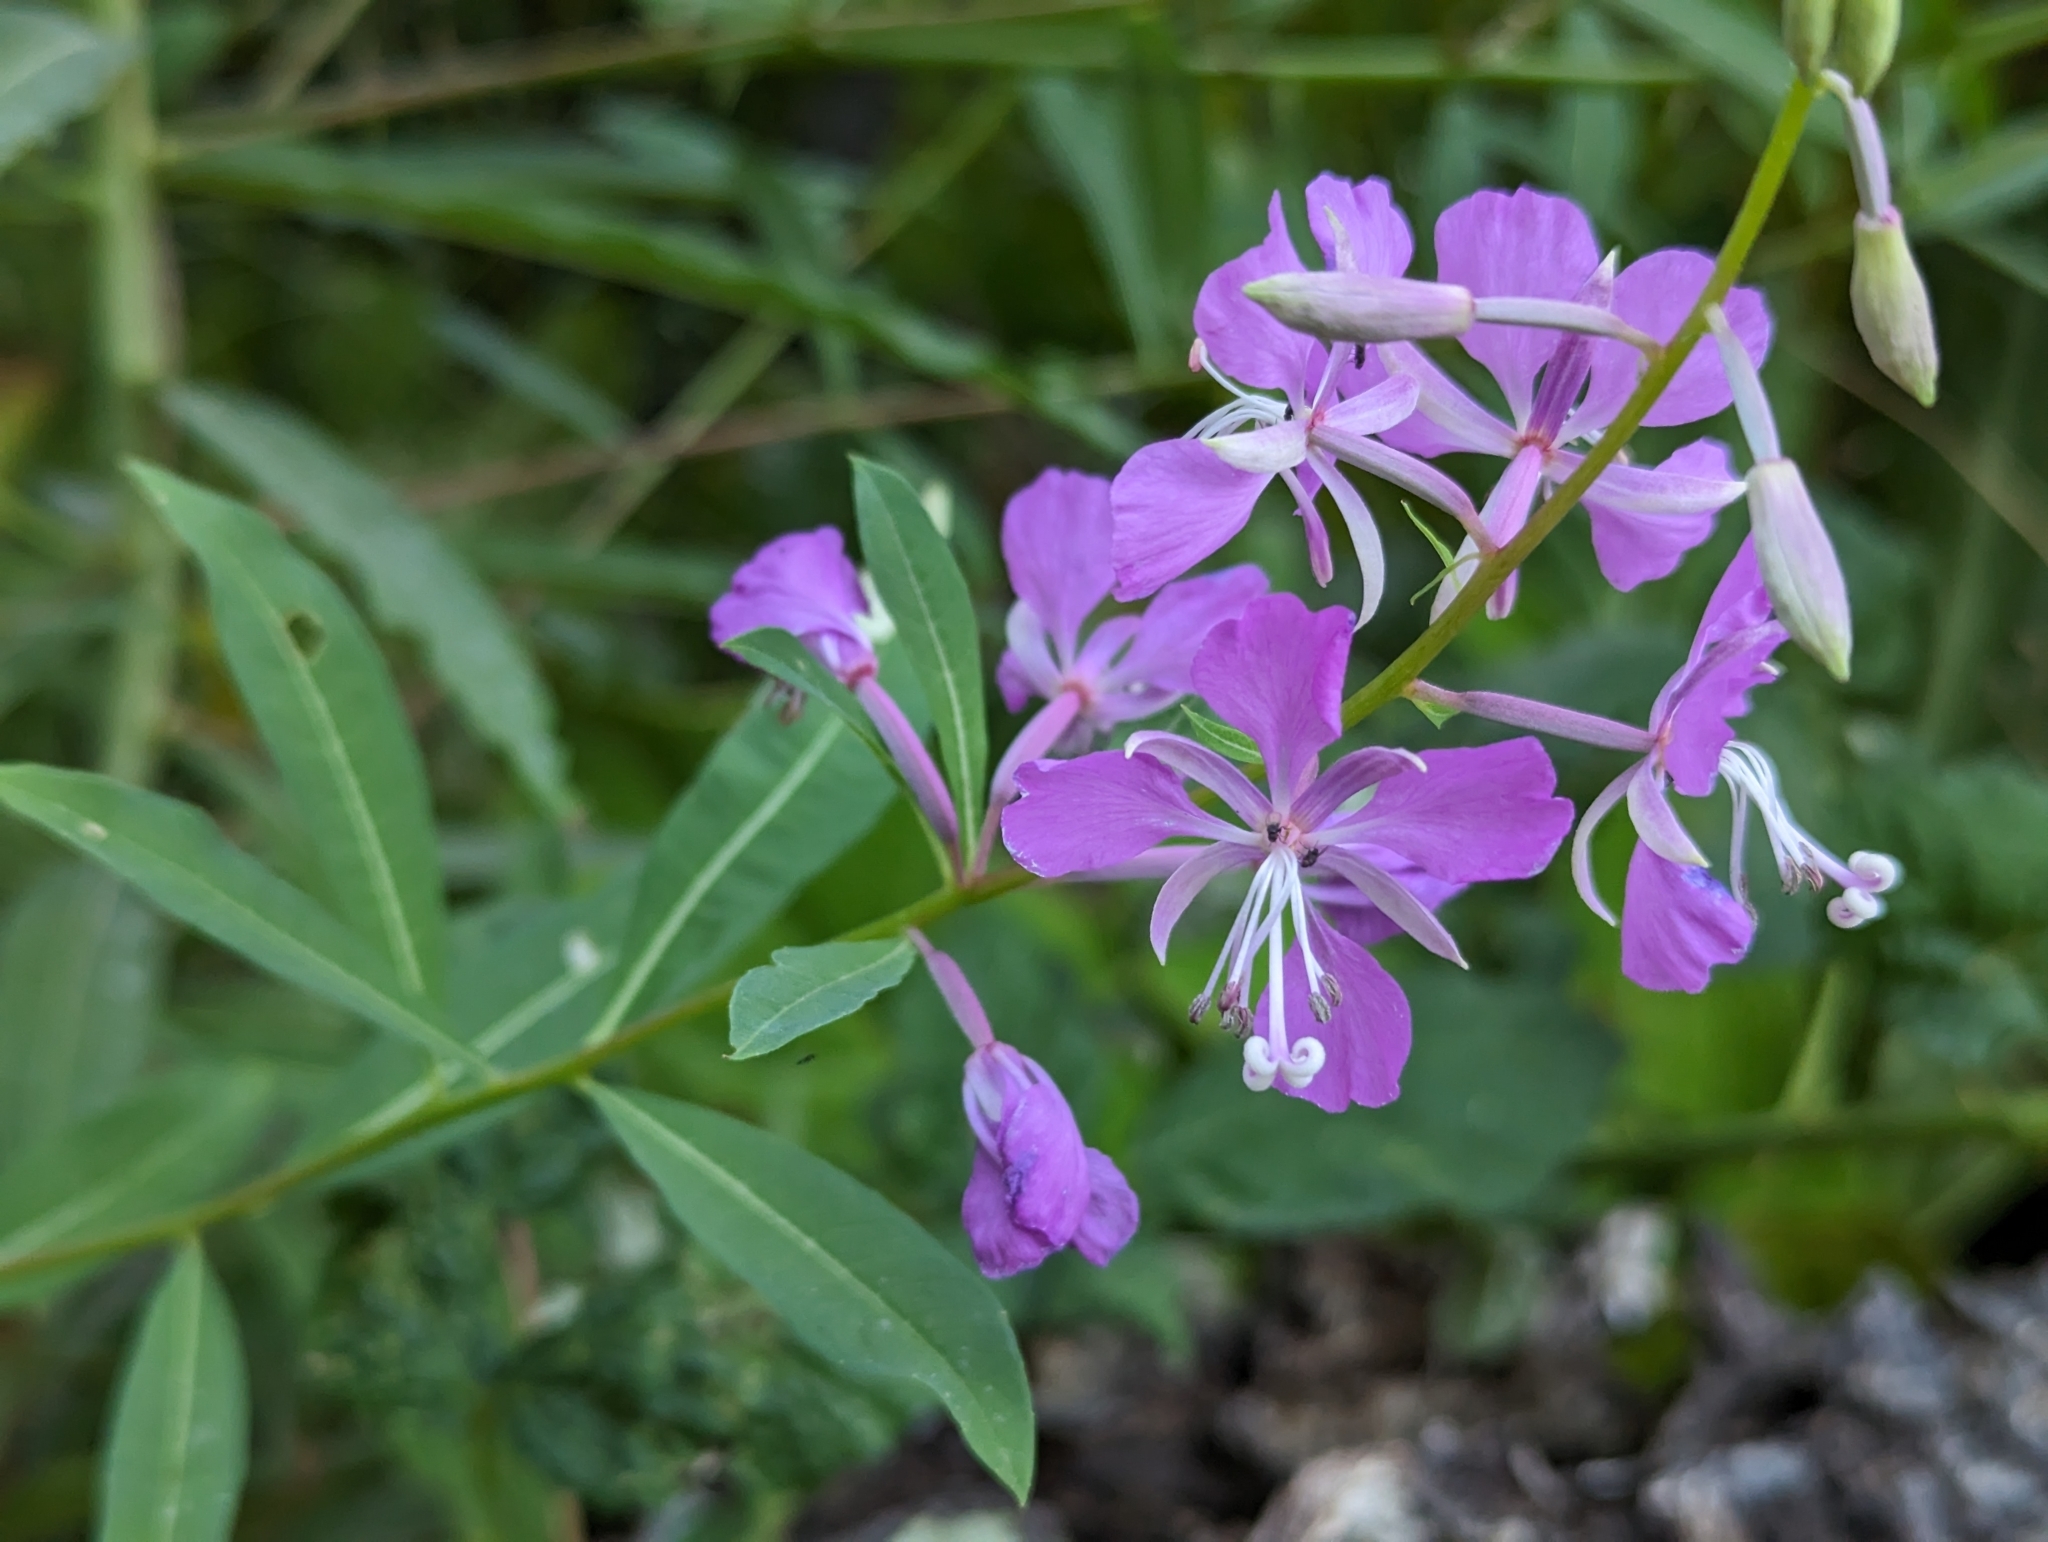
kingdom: Plantae
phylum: Tracheophyta
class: Magnoliopsida
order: Myrtales
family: Onagraceae
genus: Chamaenerion
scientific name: Chamaenerion angustifolium
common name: Fireweed
